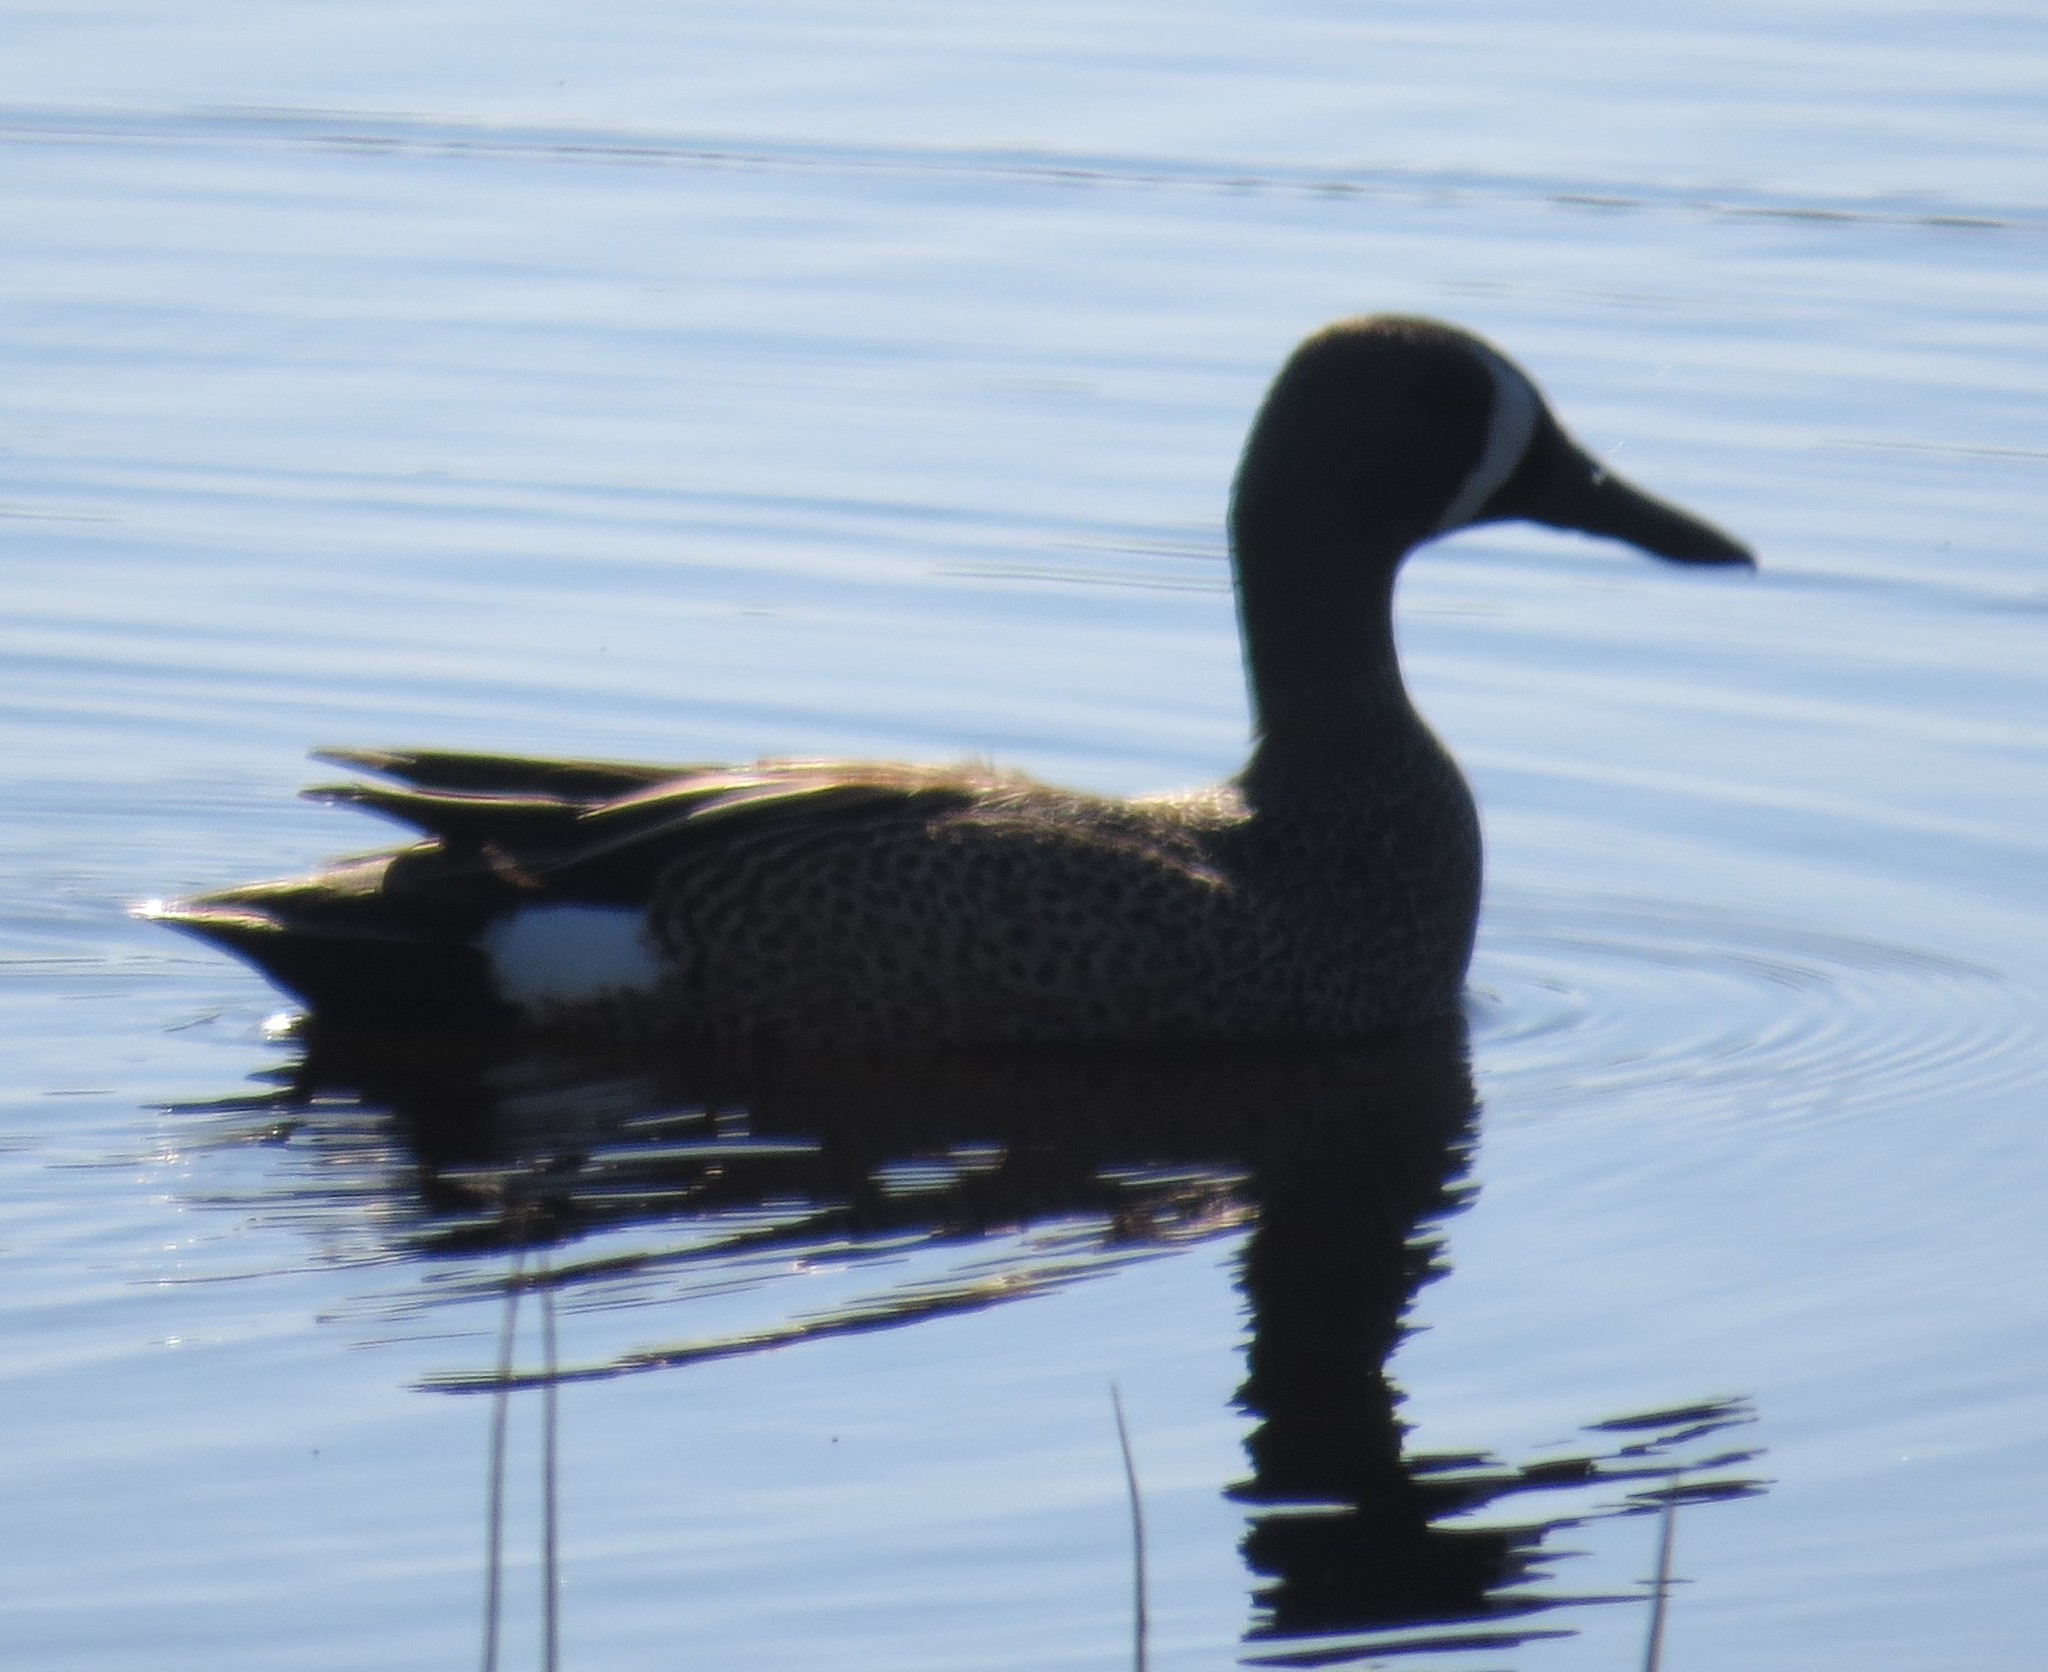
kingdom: Animalia
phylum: Chordata
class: Aves
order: Anseriformes
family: Anatidae
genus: Spatula
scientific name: Spatula discors
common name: Blue-winged teal
